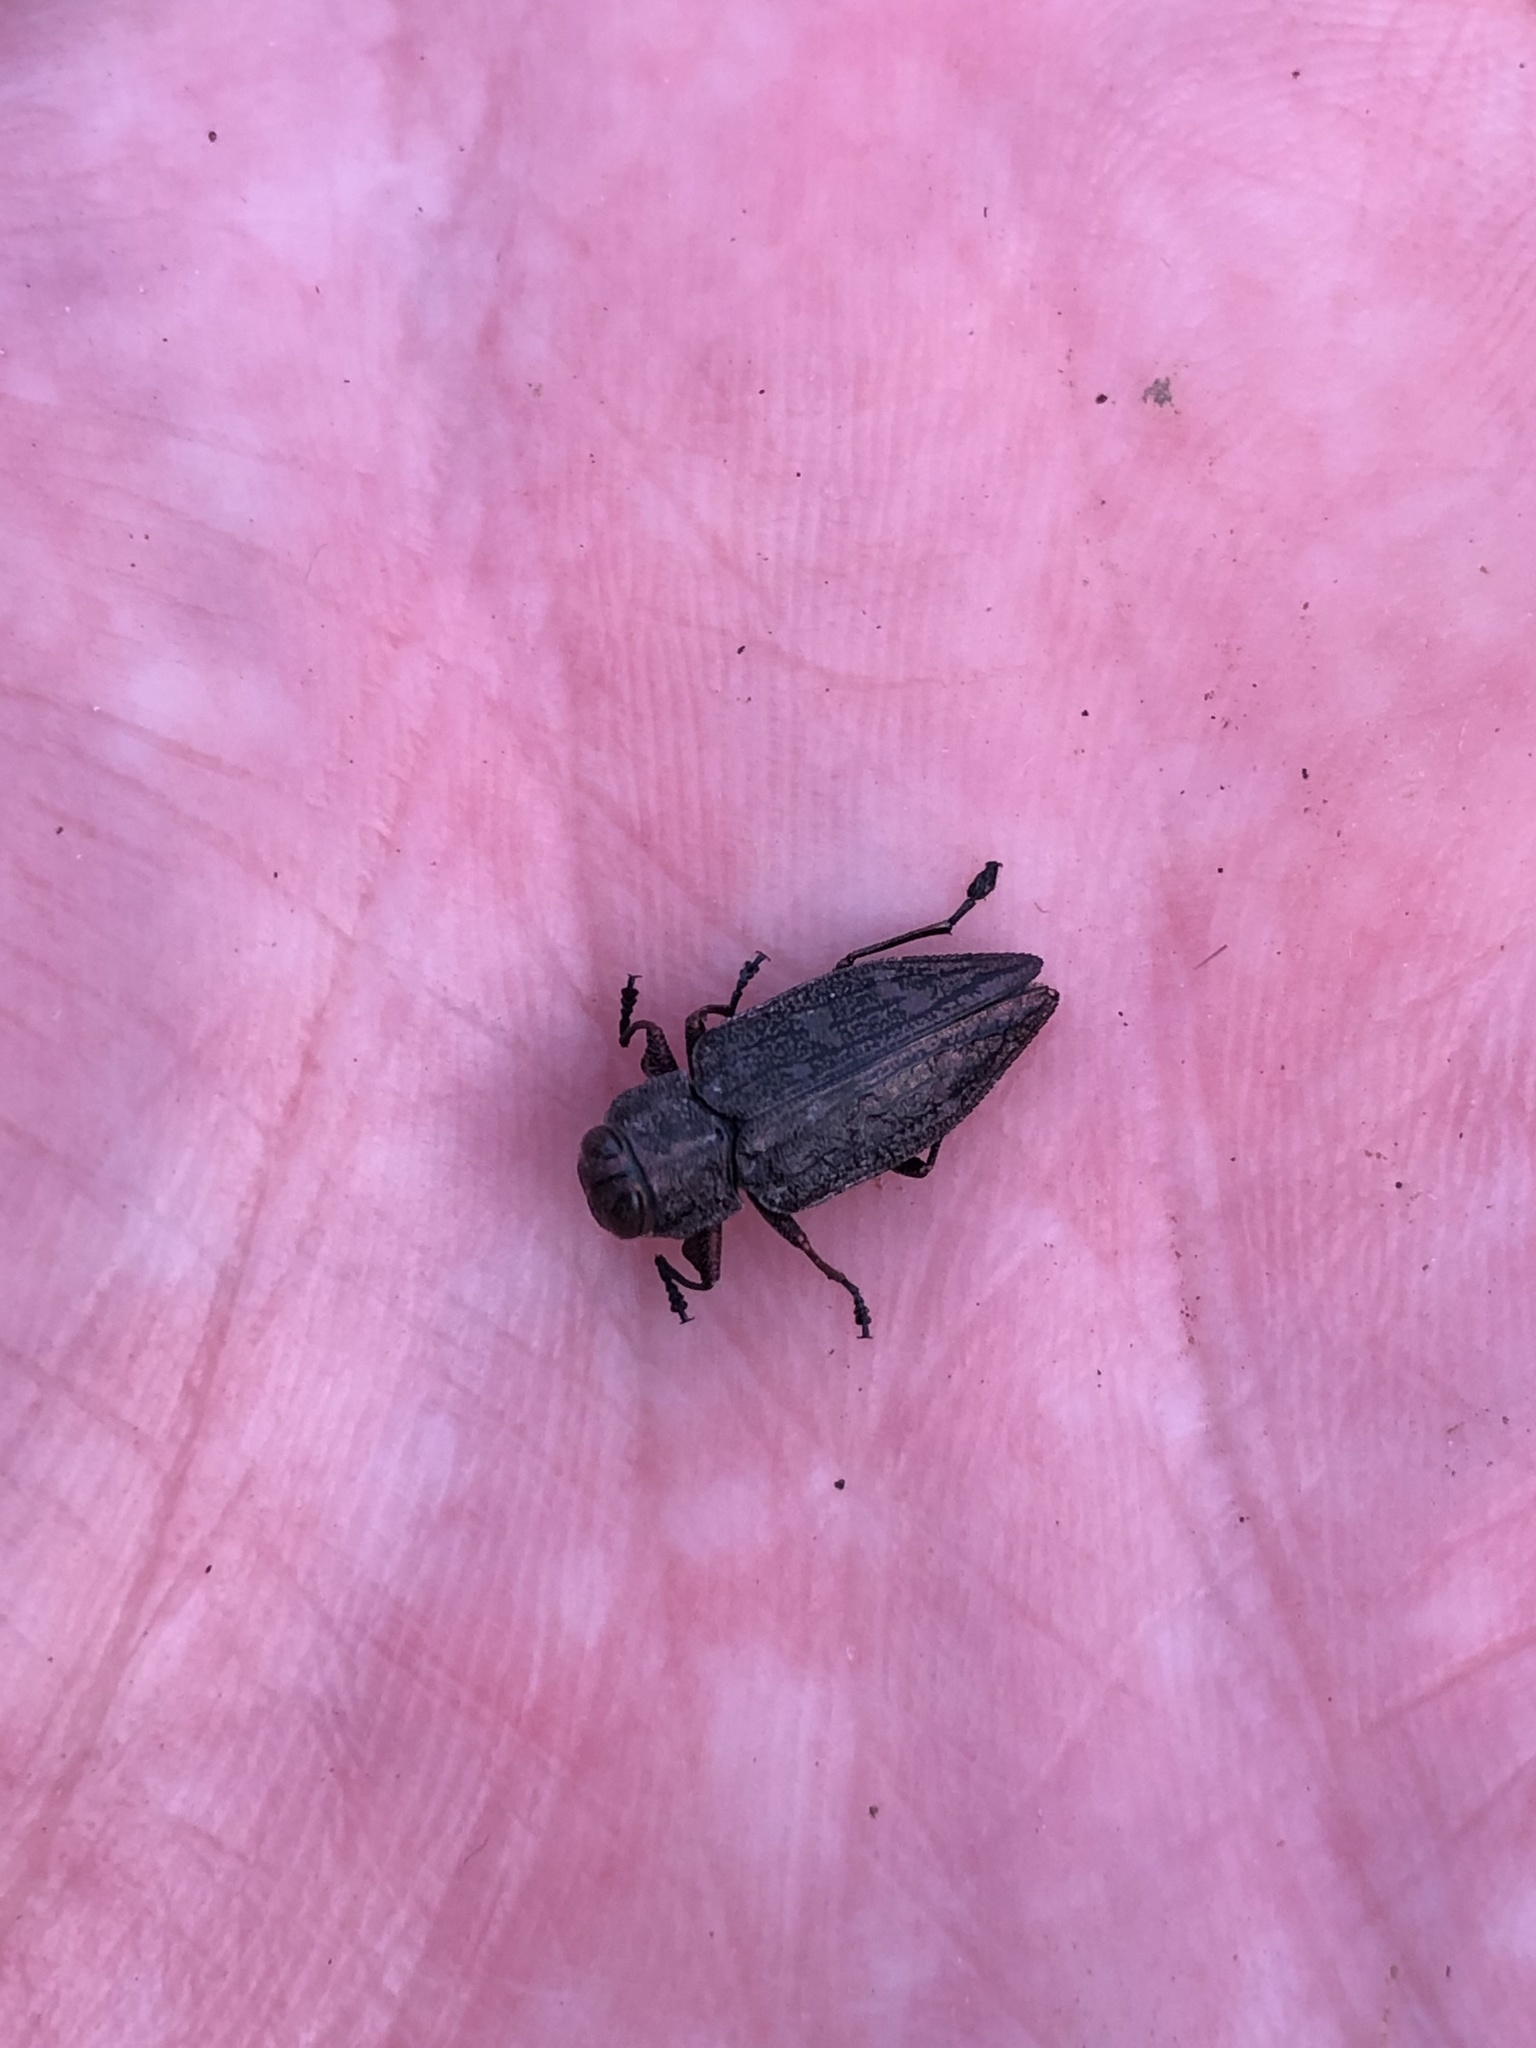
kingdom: Animalia
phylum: Arthropoda
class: Insecta
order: Coleoptera
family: Buprestidae
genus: Chrysobothris
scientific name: Chrysobothris femorata
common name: Flat-headed apple tree borer
